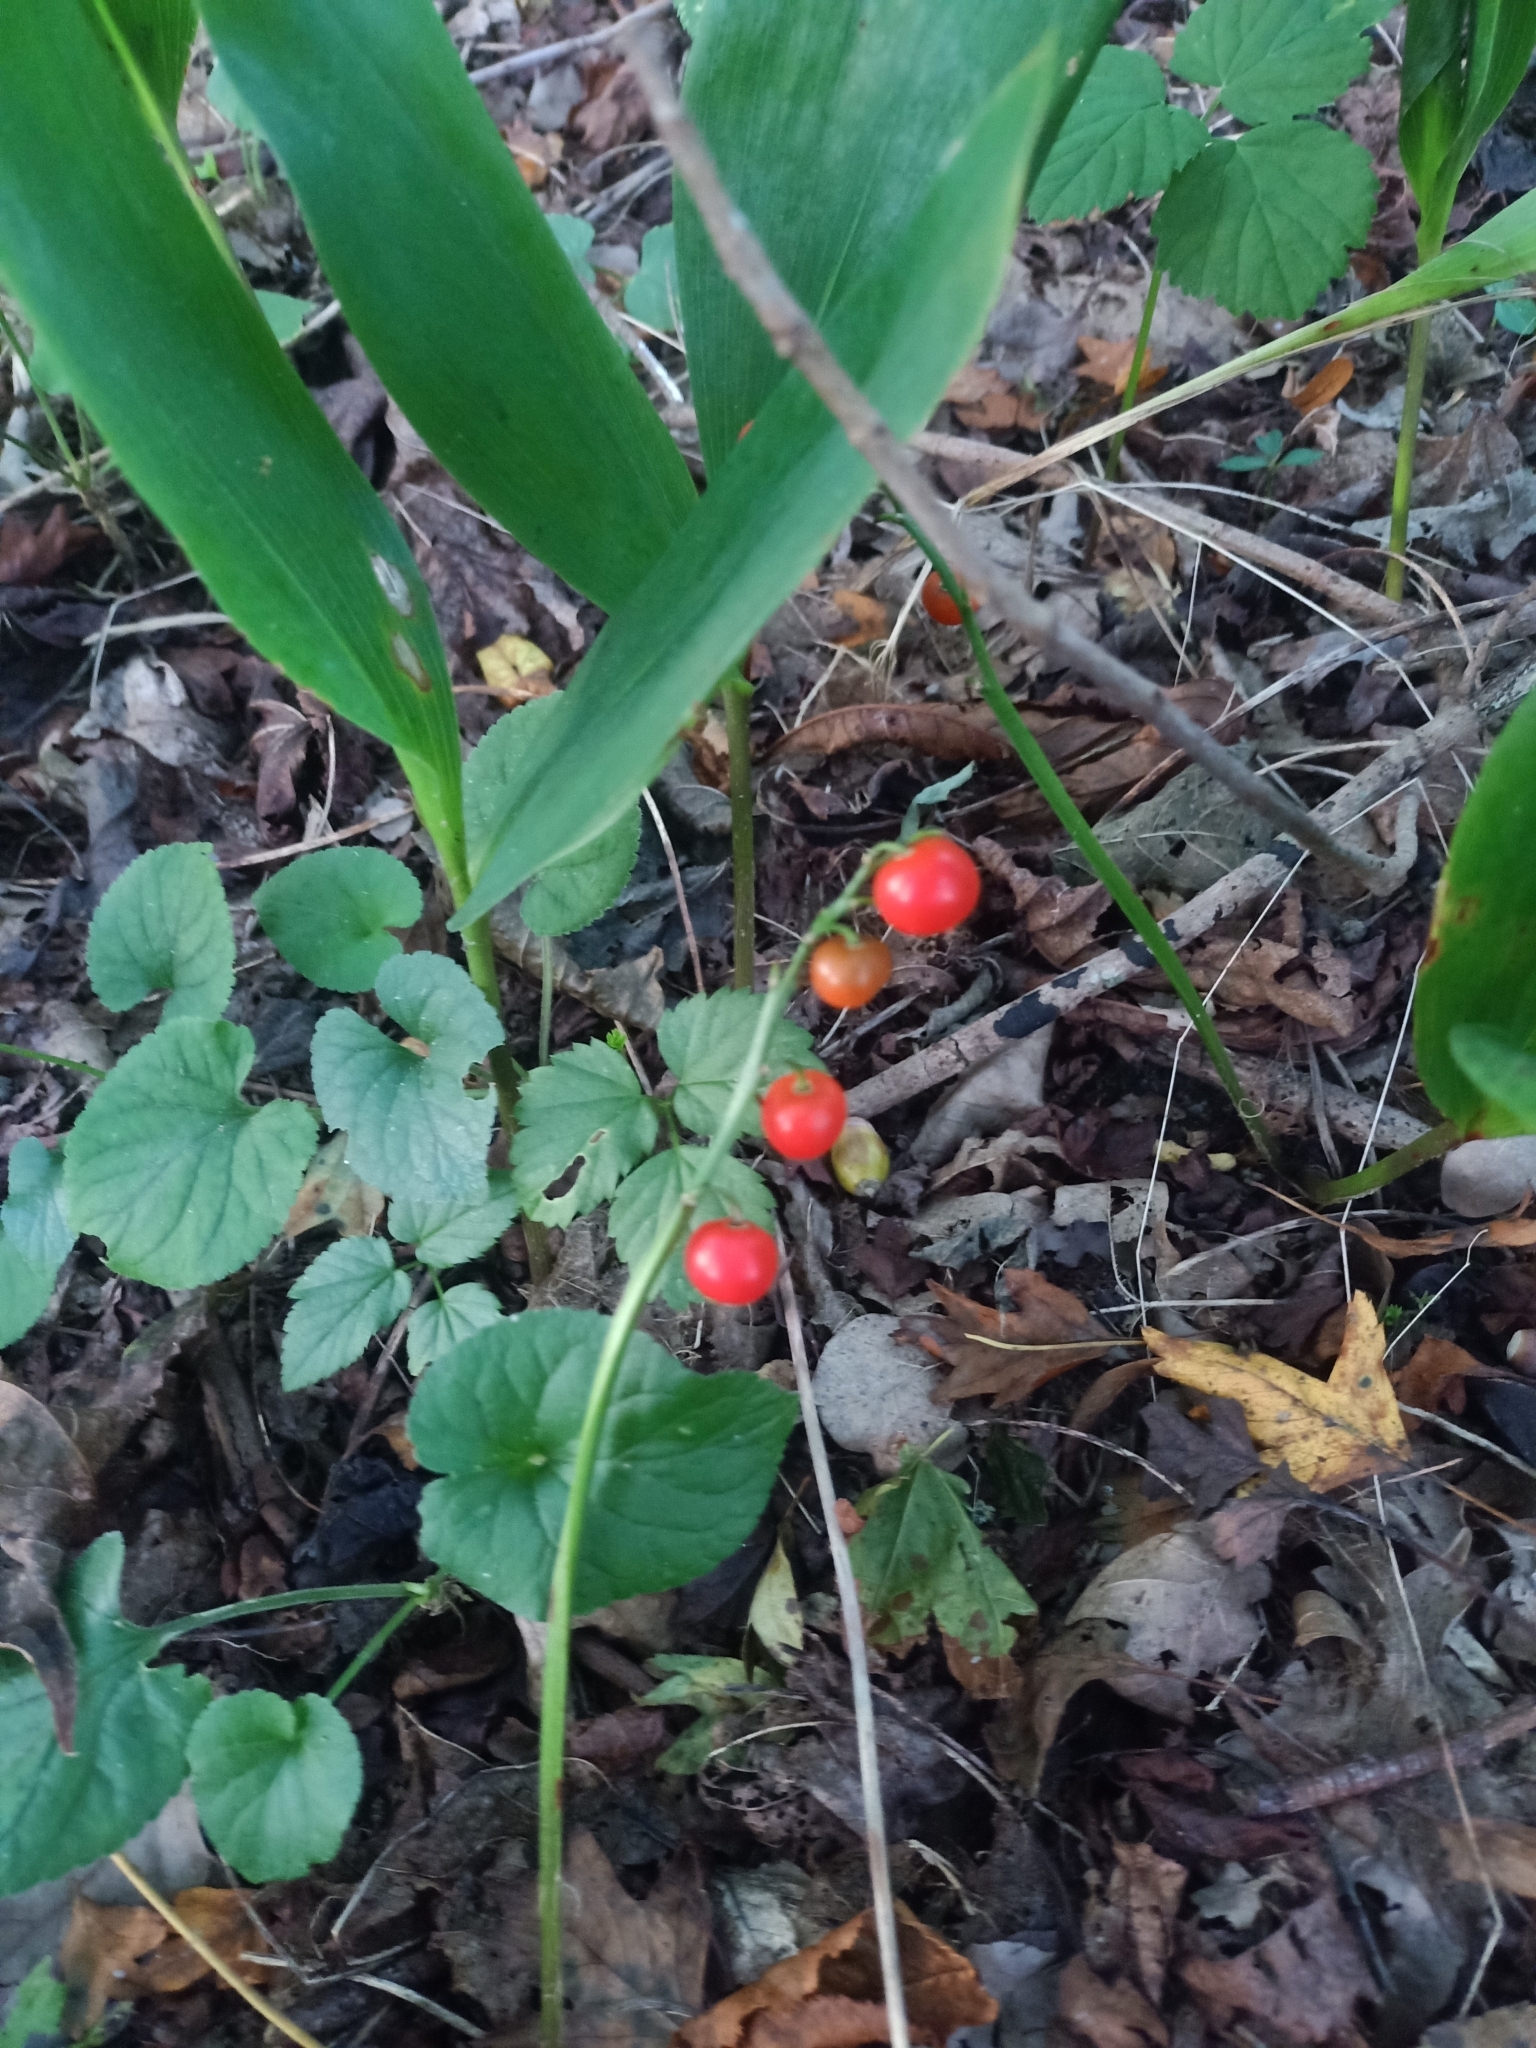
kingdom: Plantae
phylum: Tracheophyta
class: Liliopsida
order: Asparagales
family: Asparagaceae
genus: Convallaria
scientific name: Convallaria majalis
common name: Lily-of-the-valley
